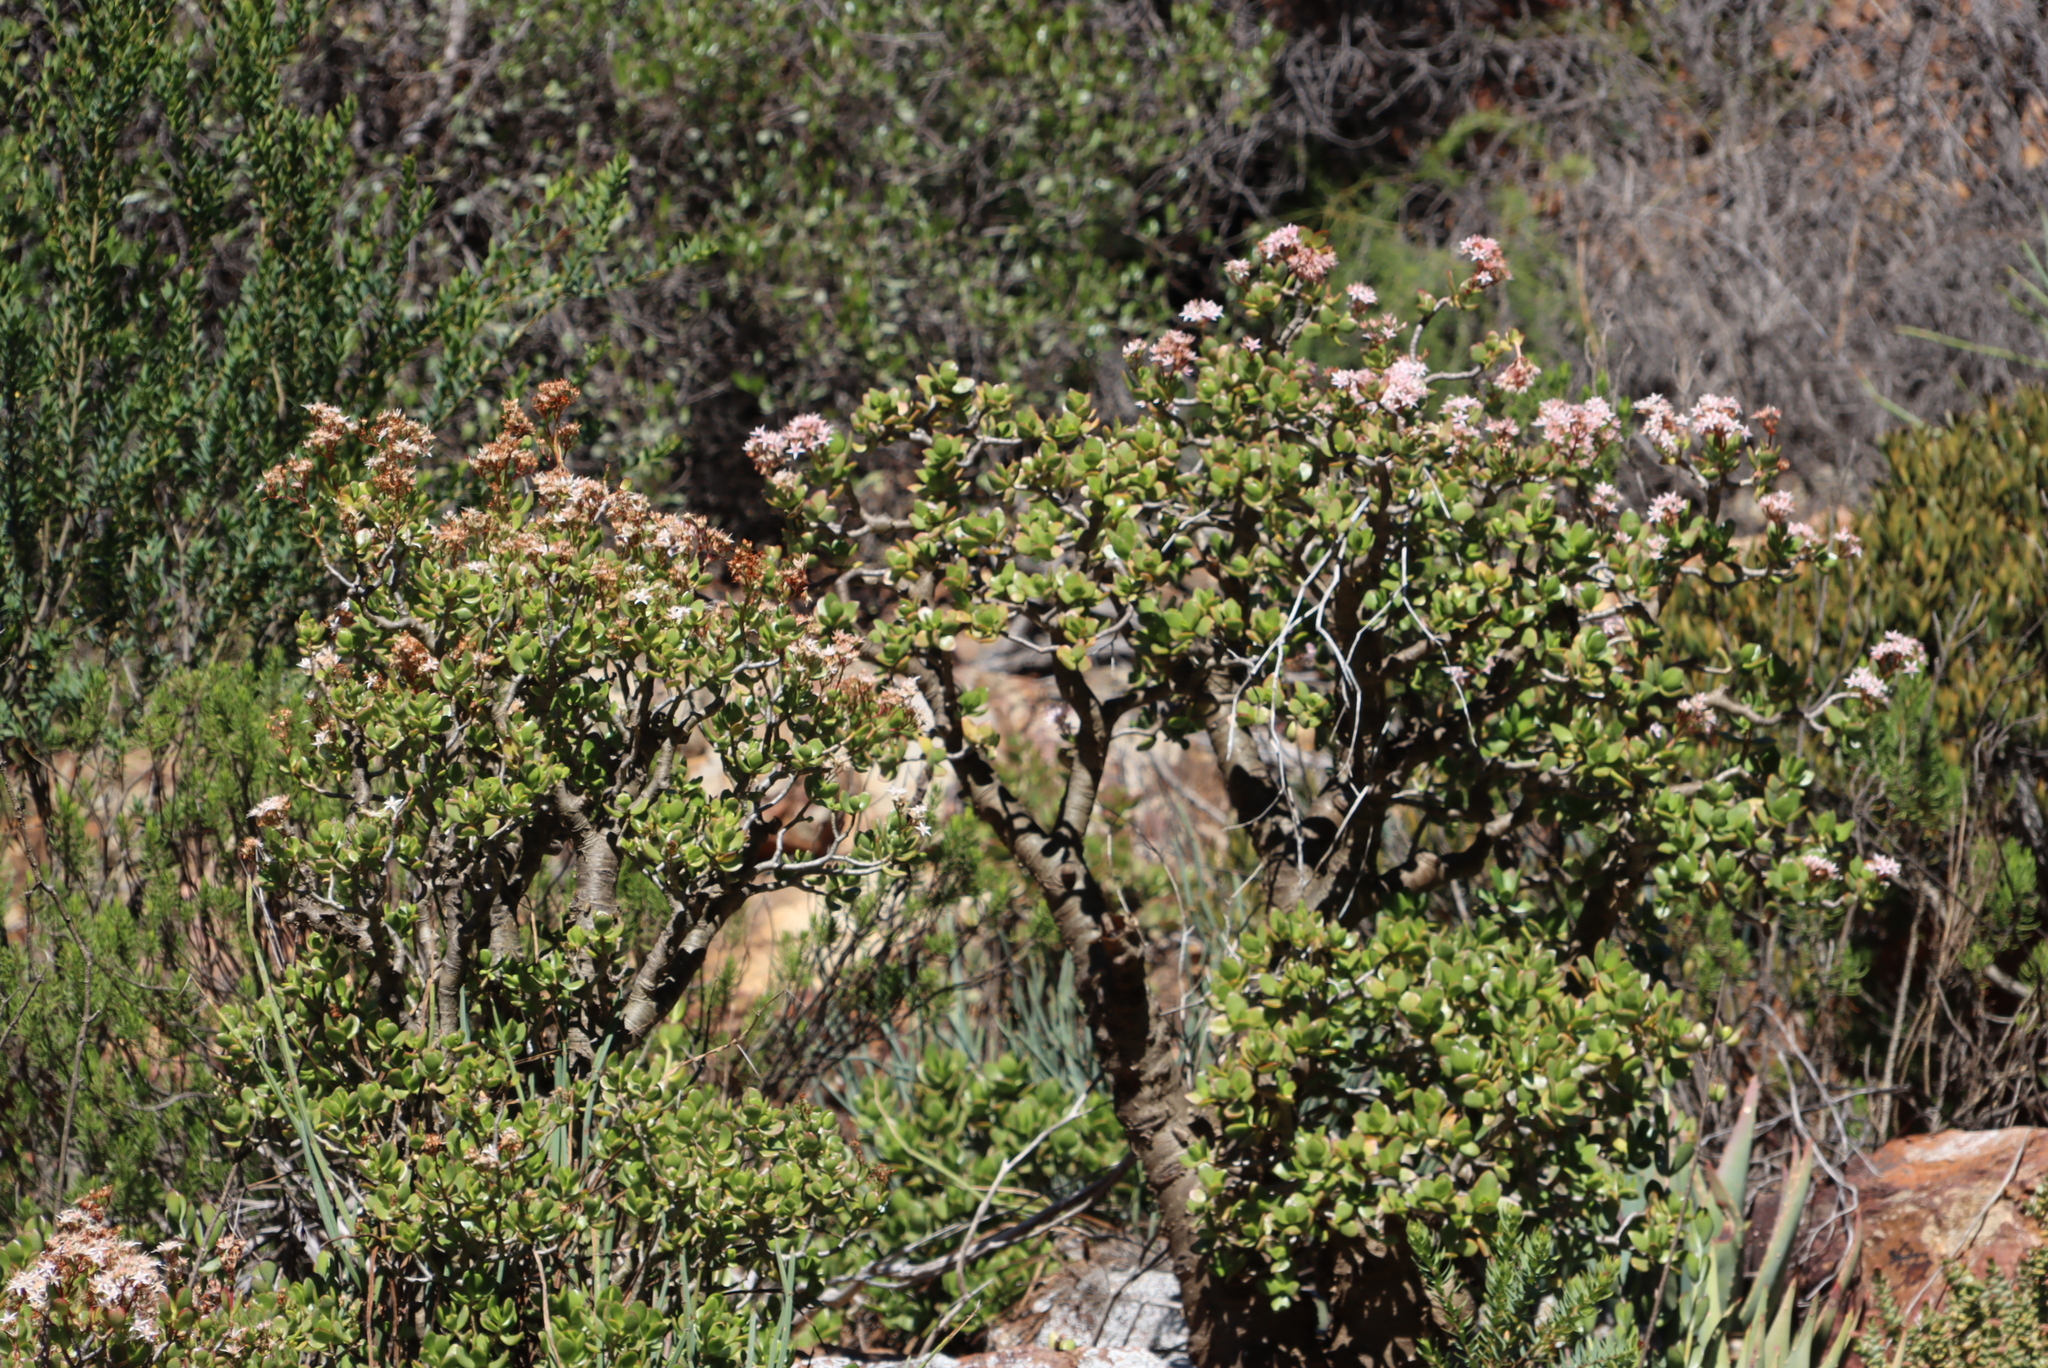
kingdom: Plantae
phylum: Tracheophyta
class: Magnoliopsida
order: Saxifragales
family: Crassulaceae
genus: Crassula
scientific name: Crassula ovata
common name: Jade plant
